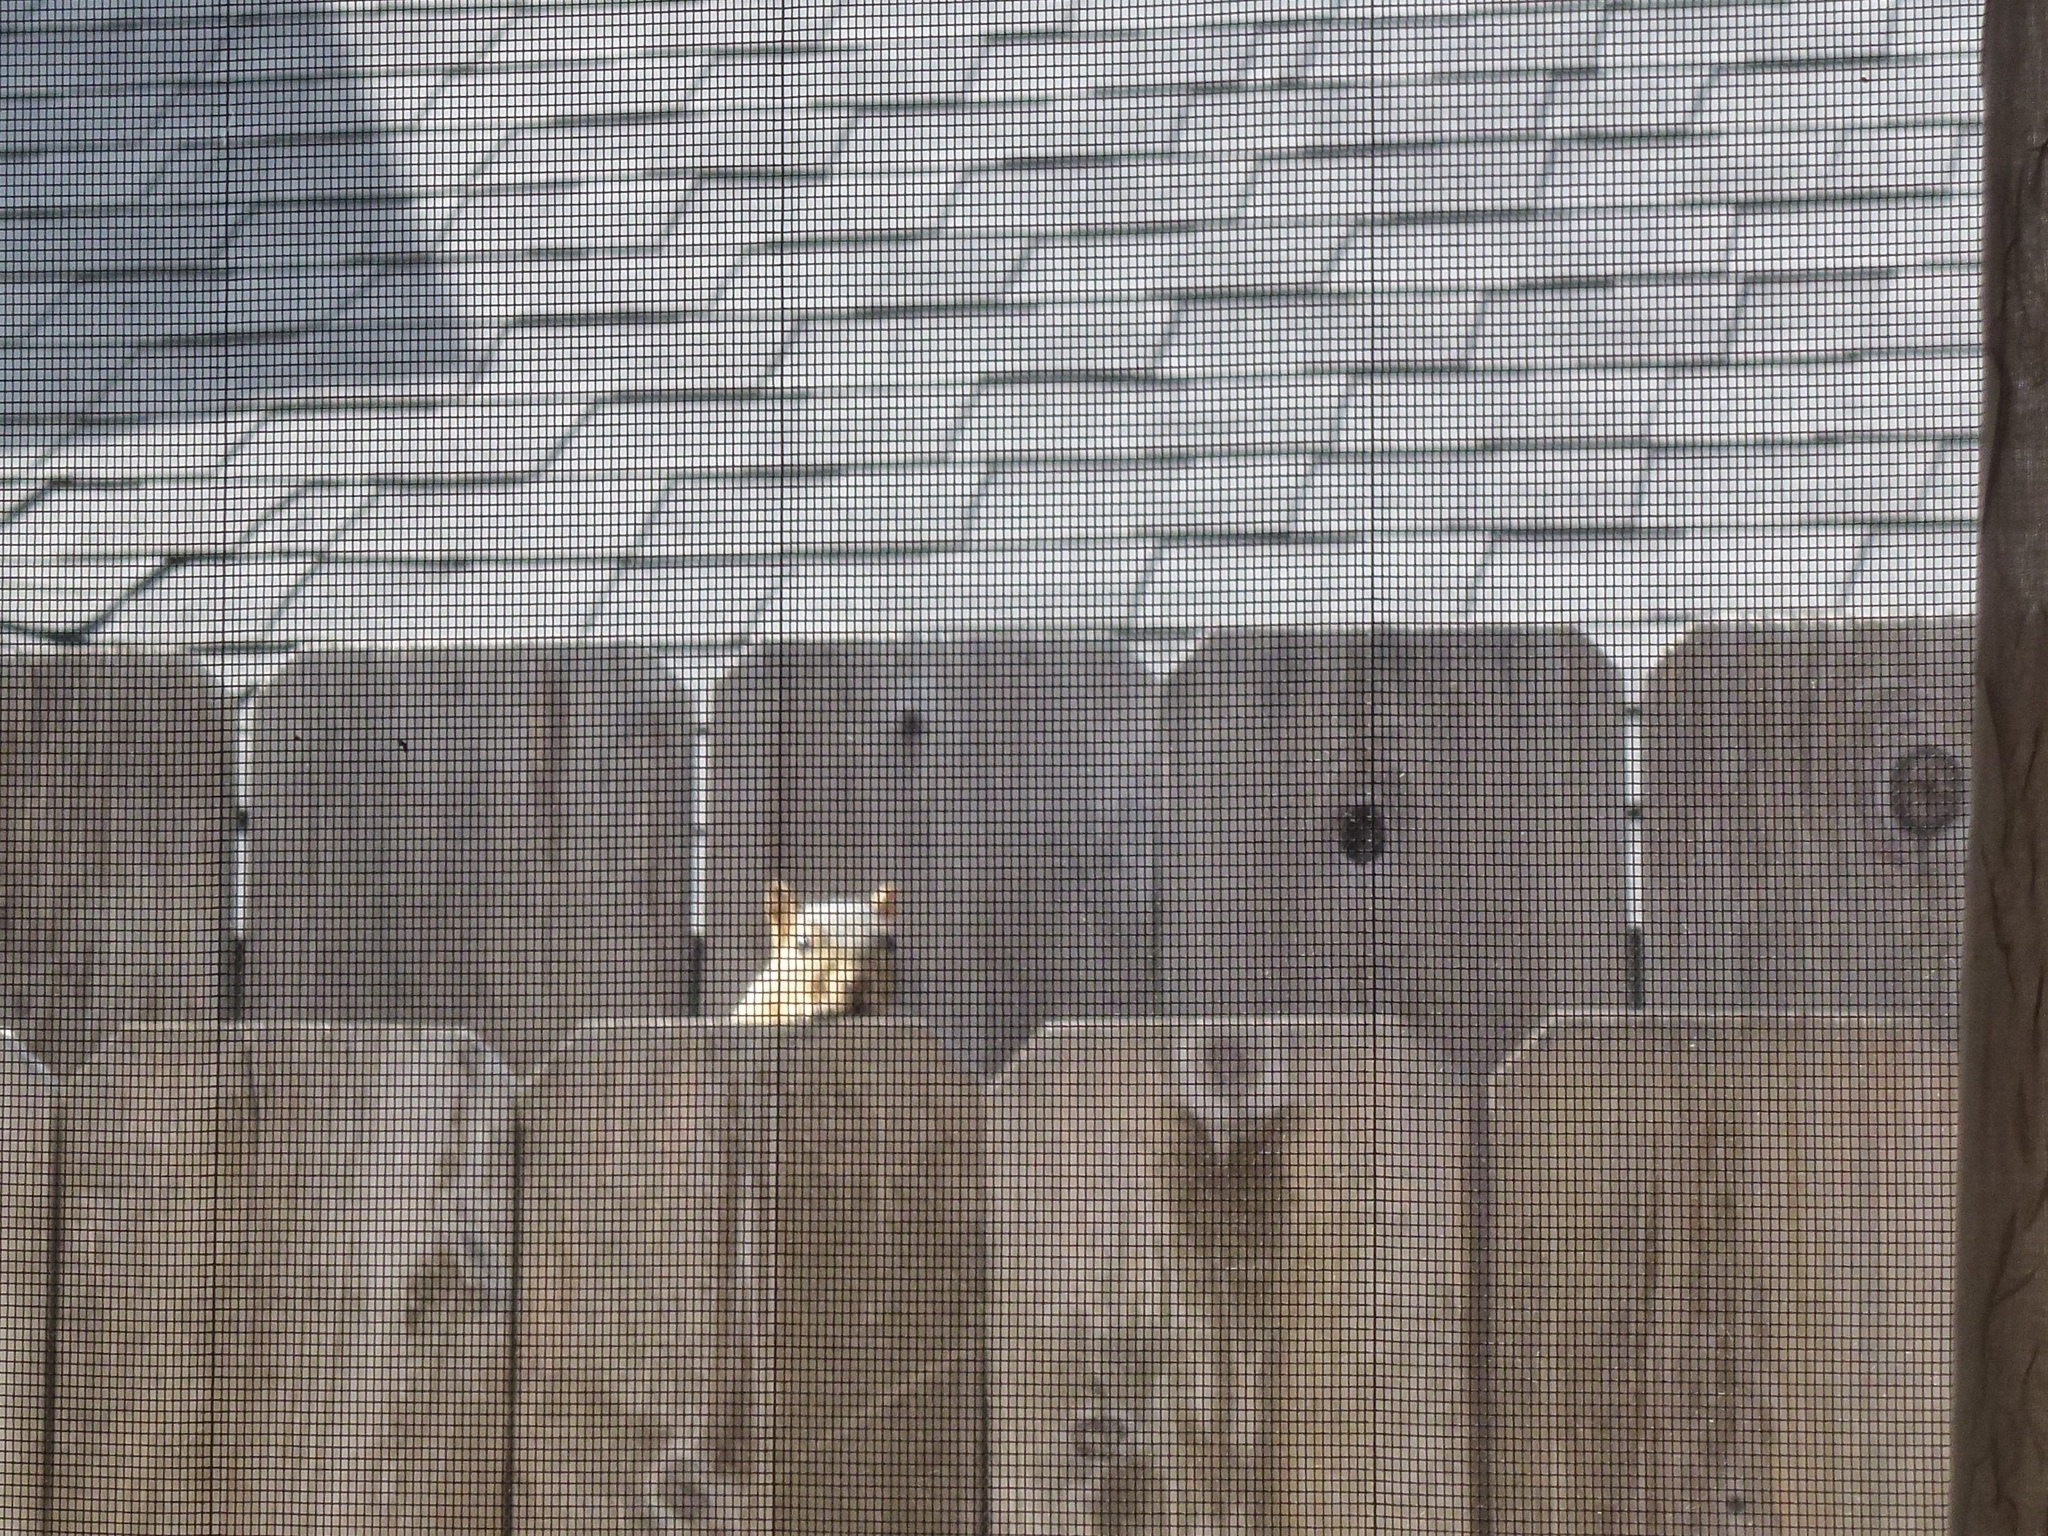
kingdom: Animalia
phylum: Chordata
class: Mammalia
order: Rodentia
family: Sciuridae
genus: Sciurus
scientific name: Sciurus niger
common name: Fox squirrel
